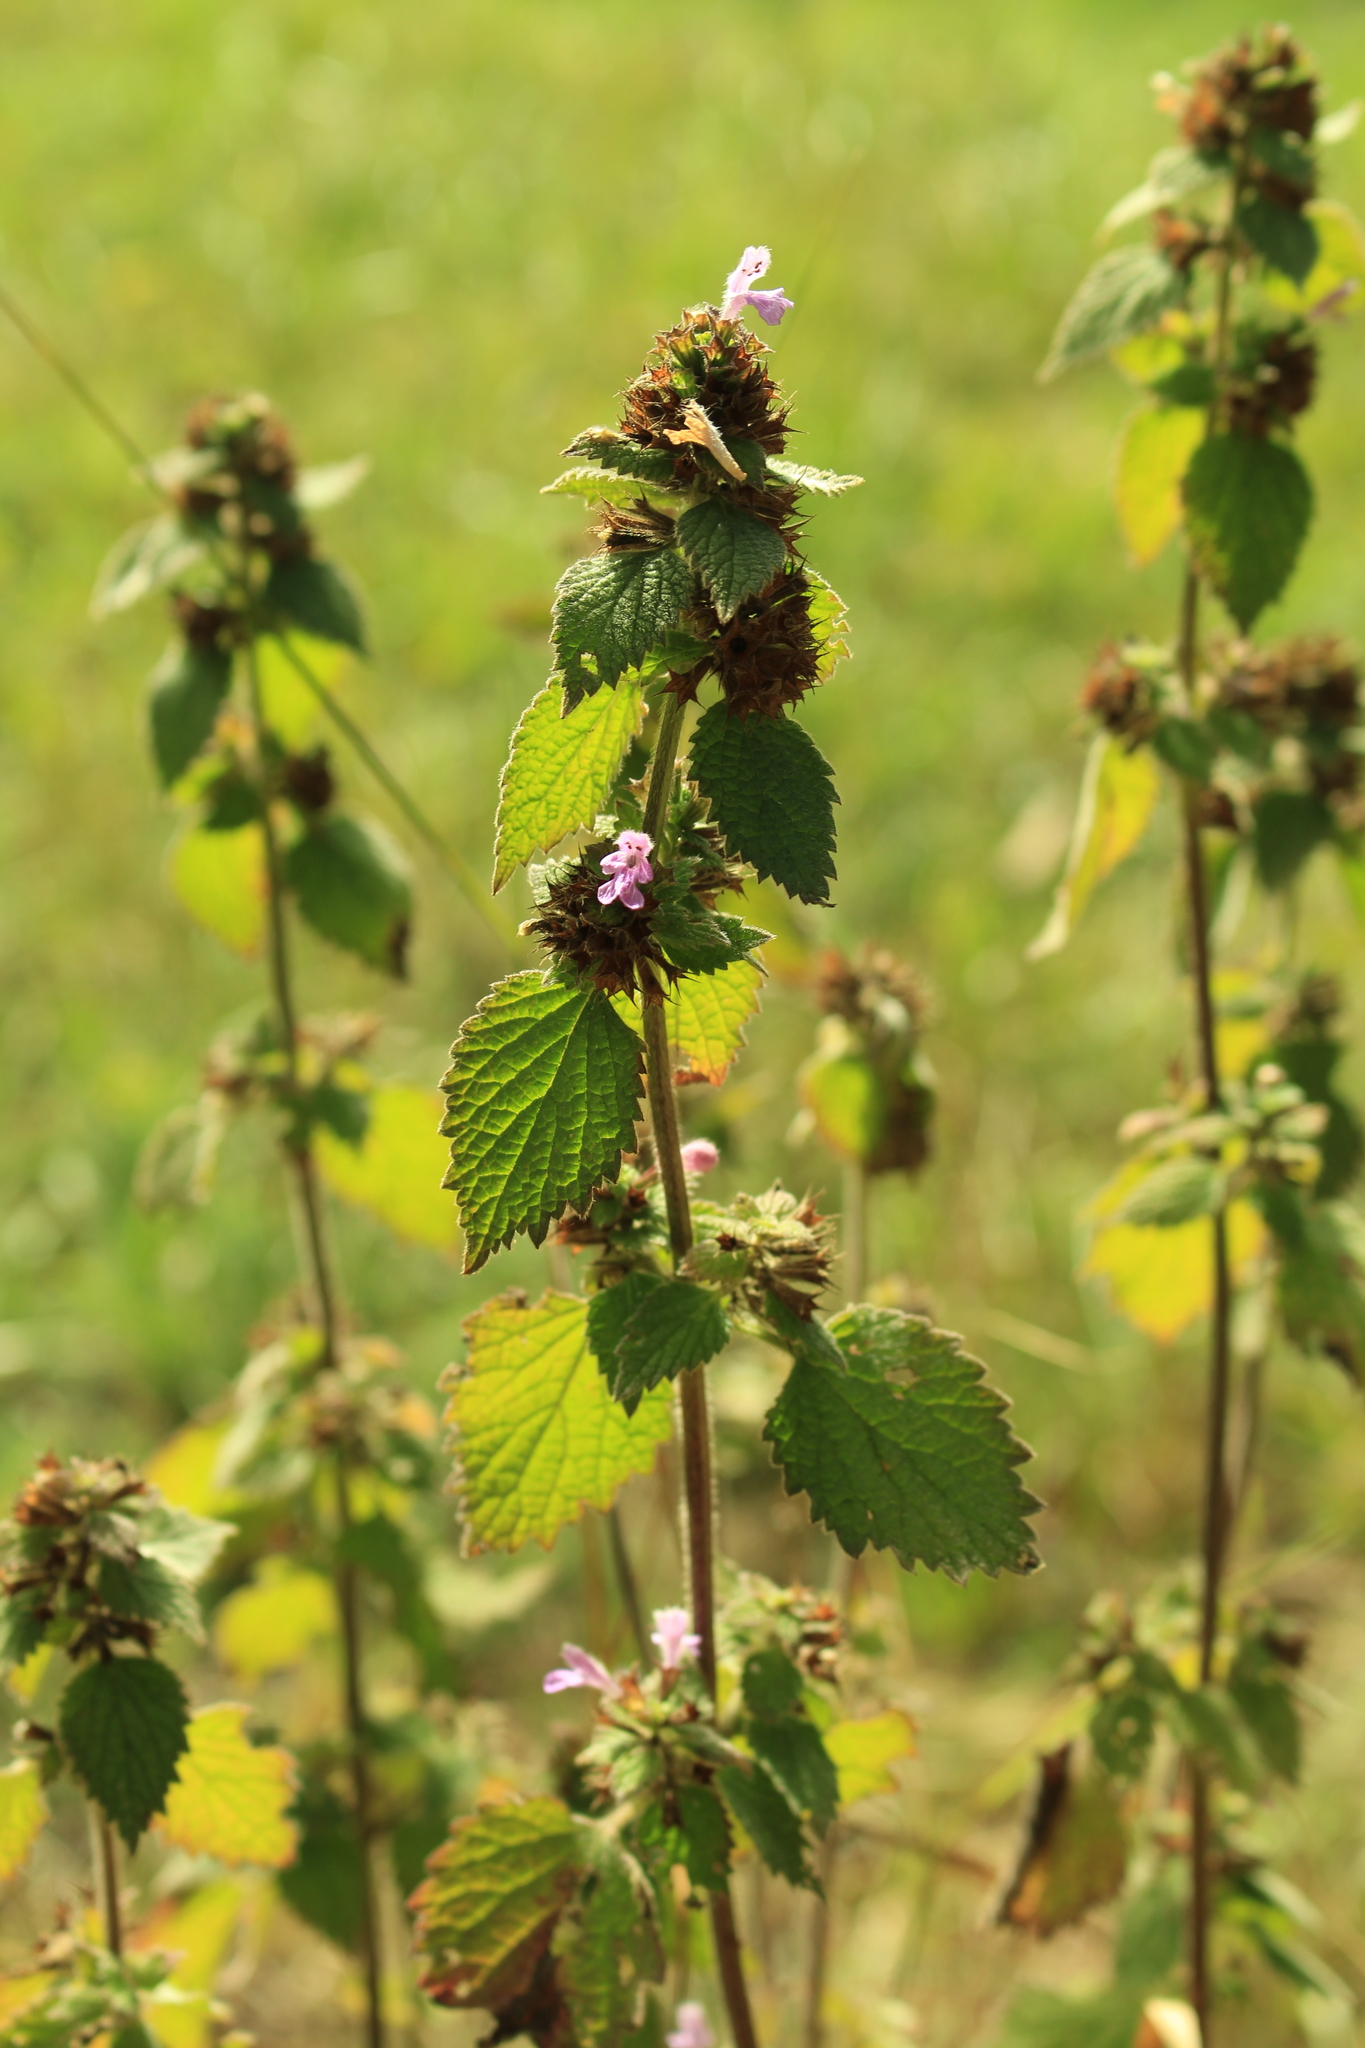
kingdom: Plantae
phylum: Tracheophyta
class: Magnoliopsida
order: Lamiales
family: Lamiaceae
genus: Ballota
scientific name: Ballota nigra
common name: Black horehound
